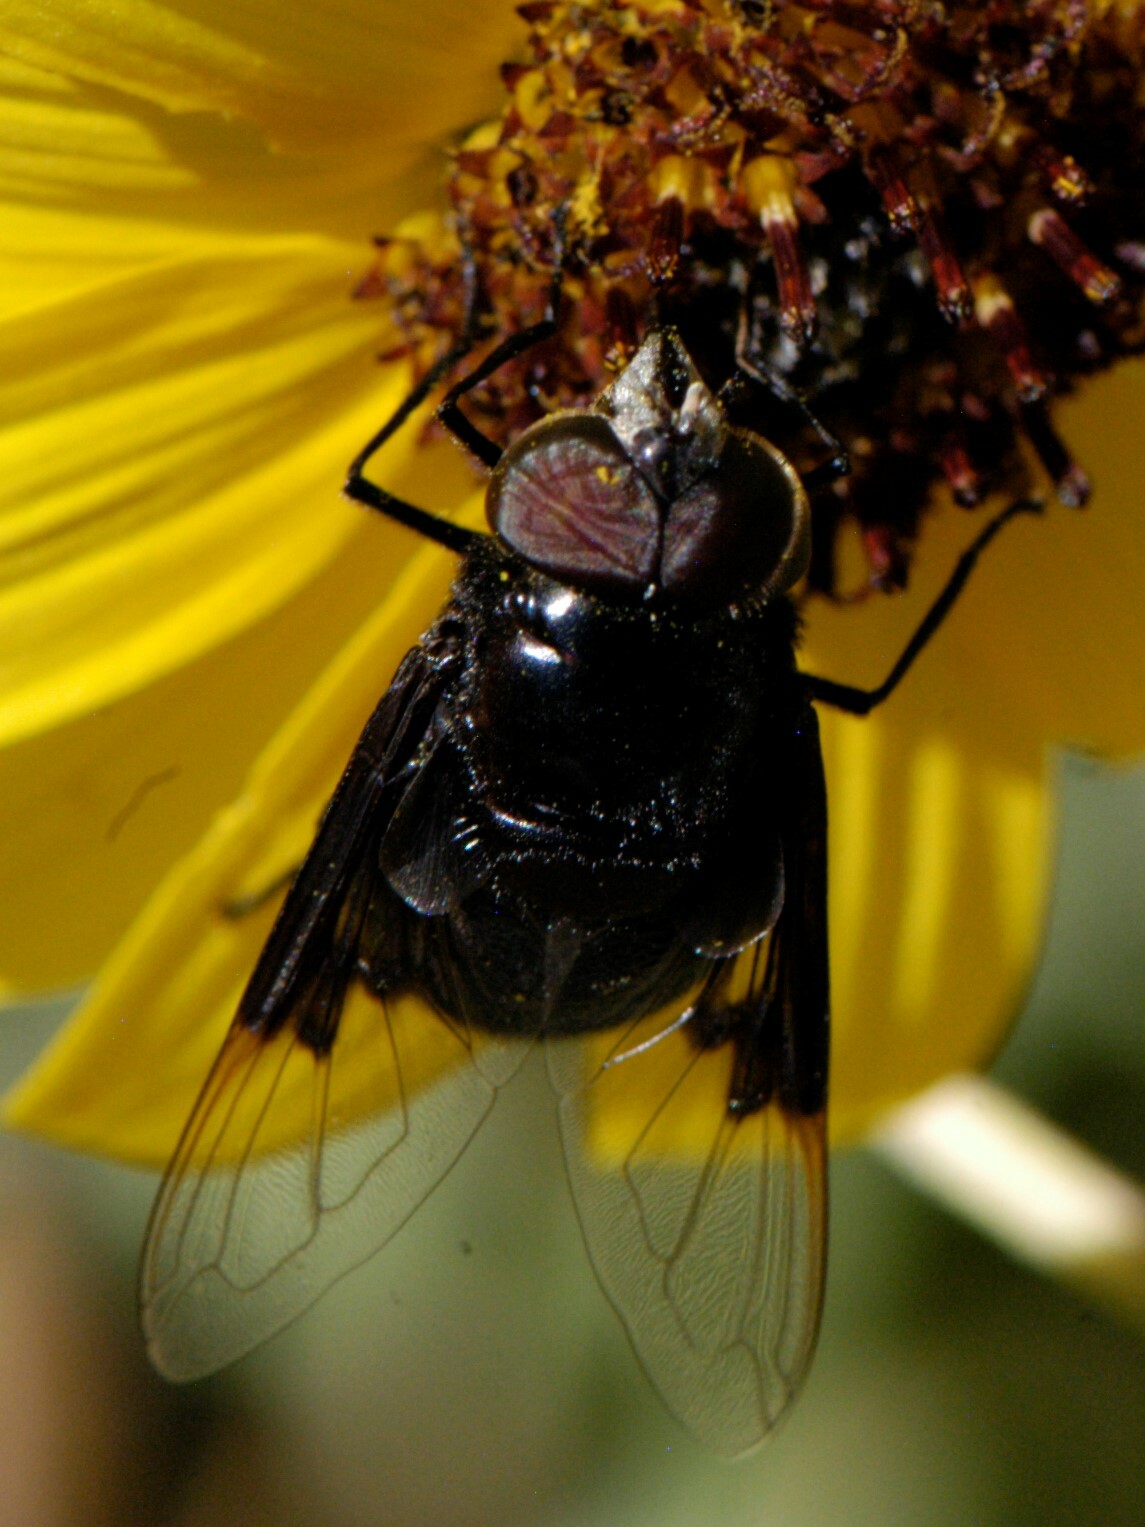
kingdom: Animalia
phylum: Arthropoda
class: Insecta
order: Diptera
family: Syrphidae
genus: Copestylum
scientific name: Copestylum
